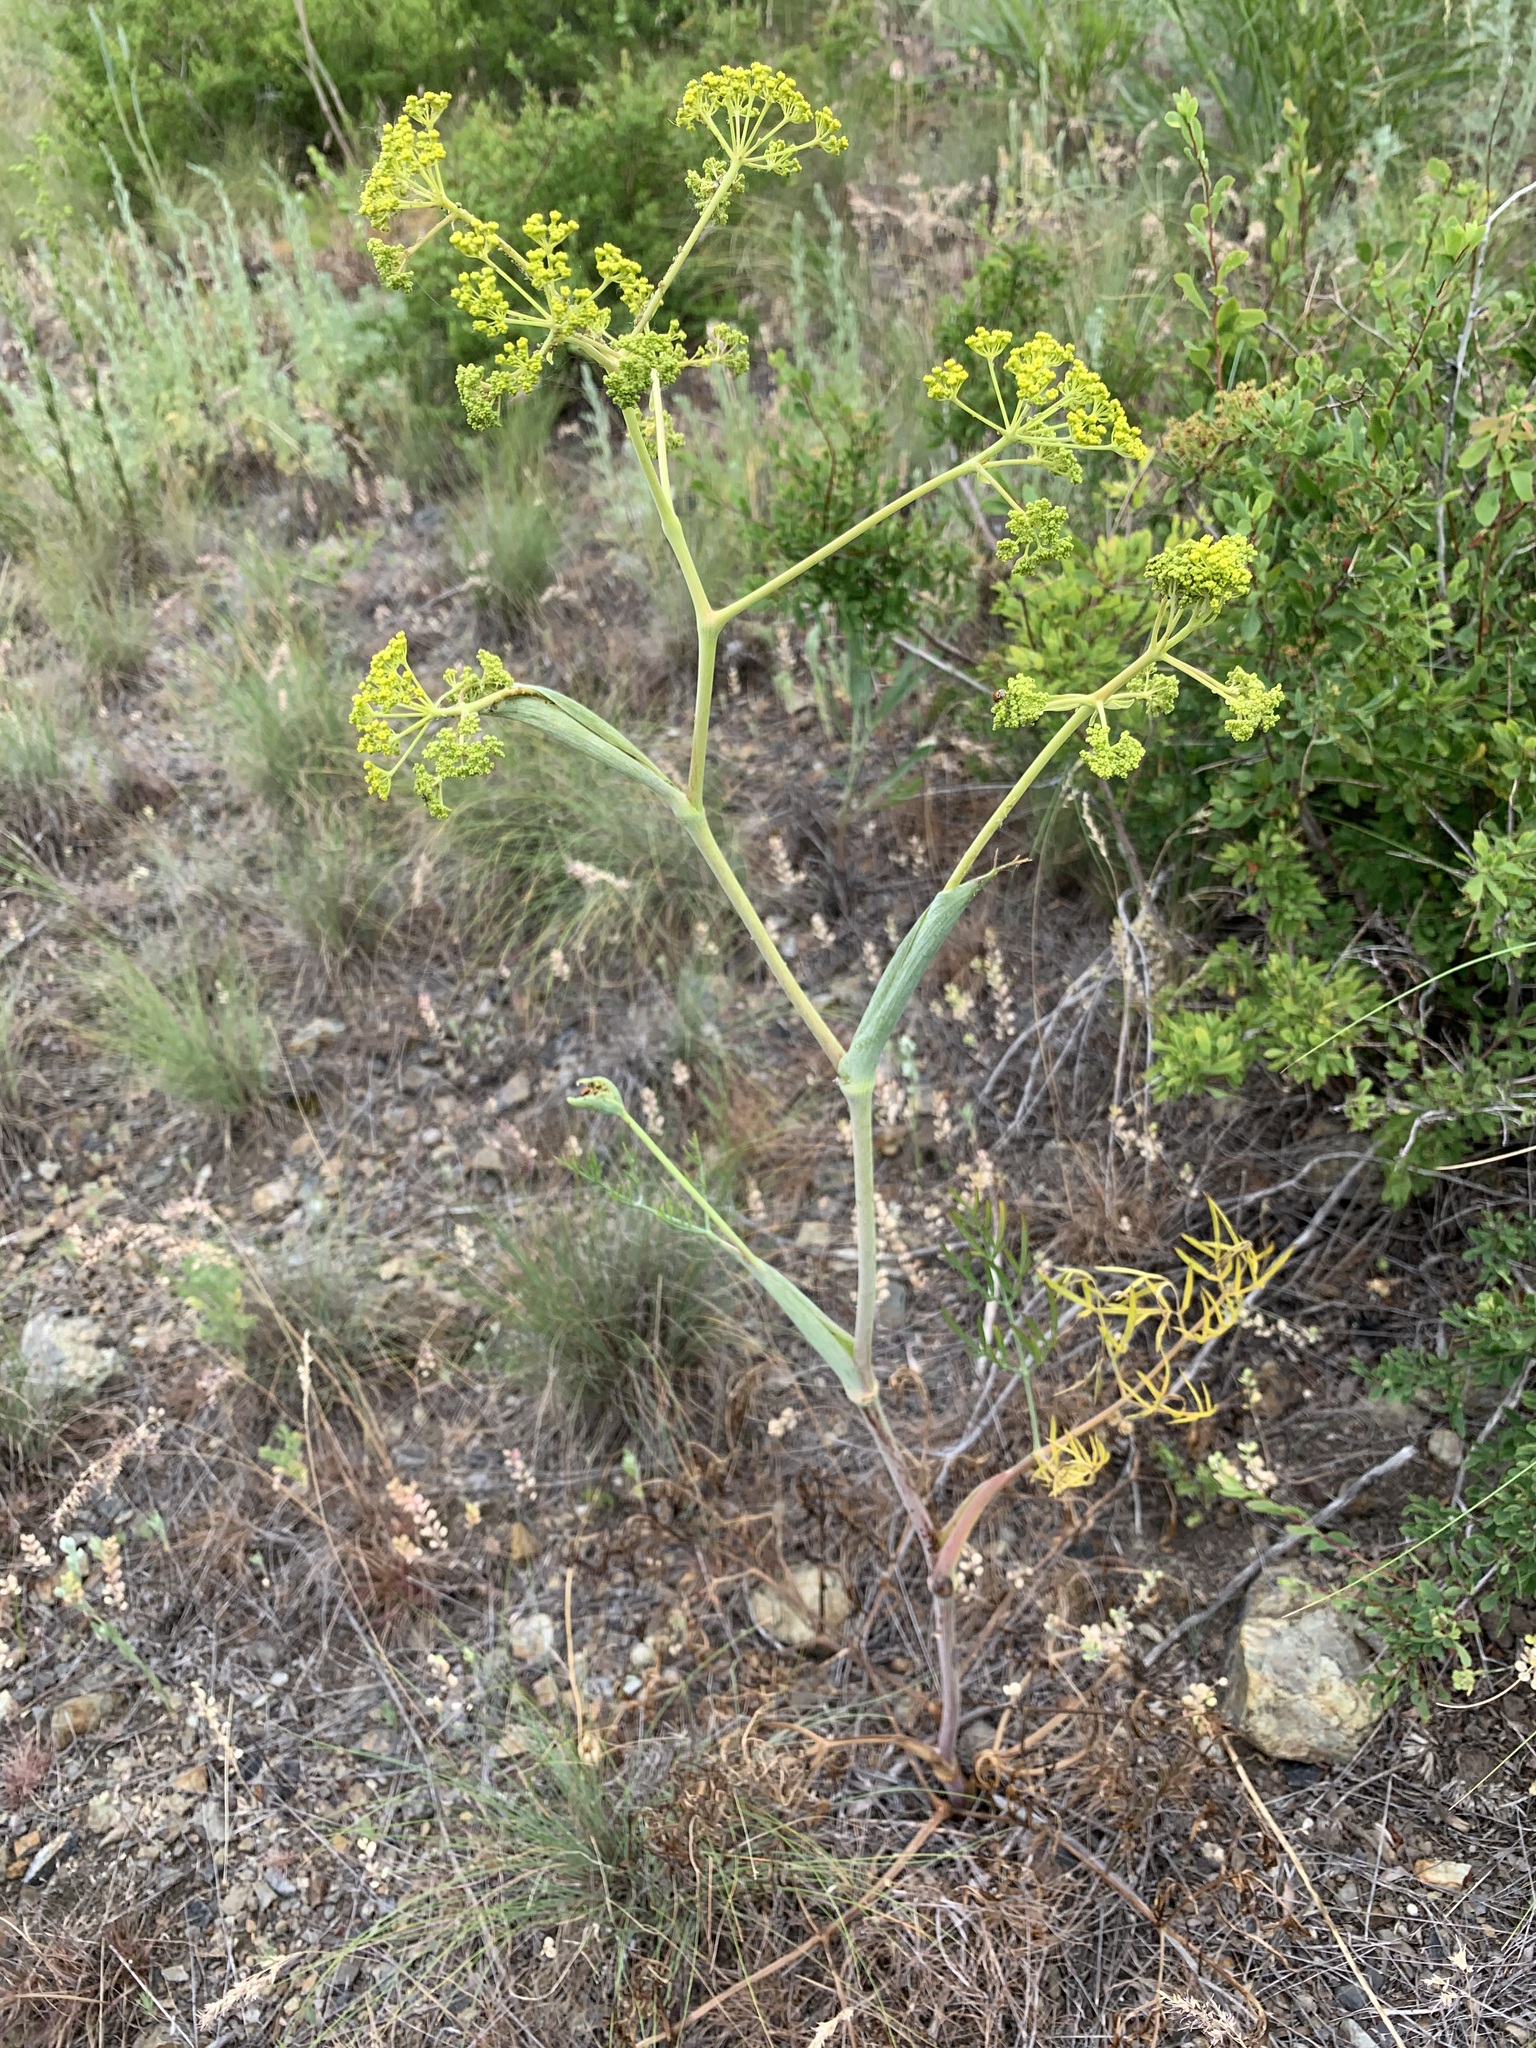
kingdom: Plantae
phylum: Tracheophyta
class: Magnoliopsida
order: Apiales
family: Apiaceae
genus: Ferula
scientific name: Ferula tatarica
